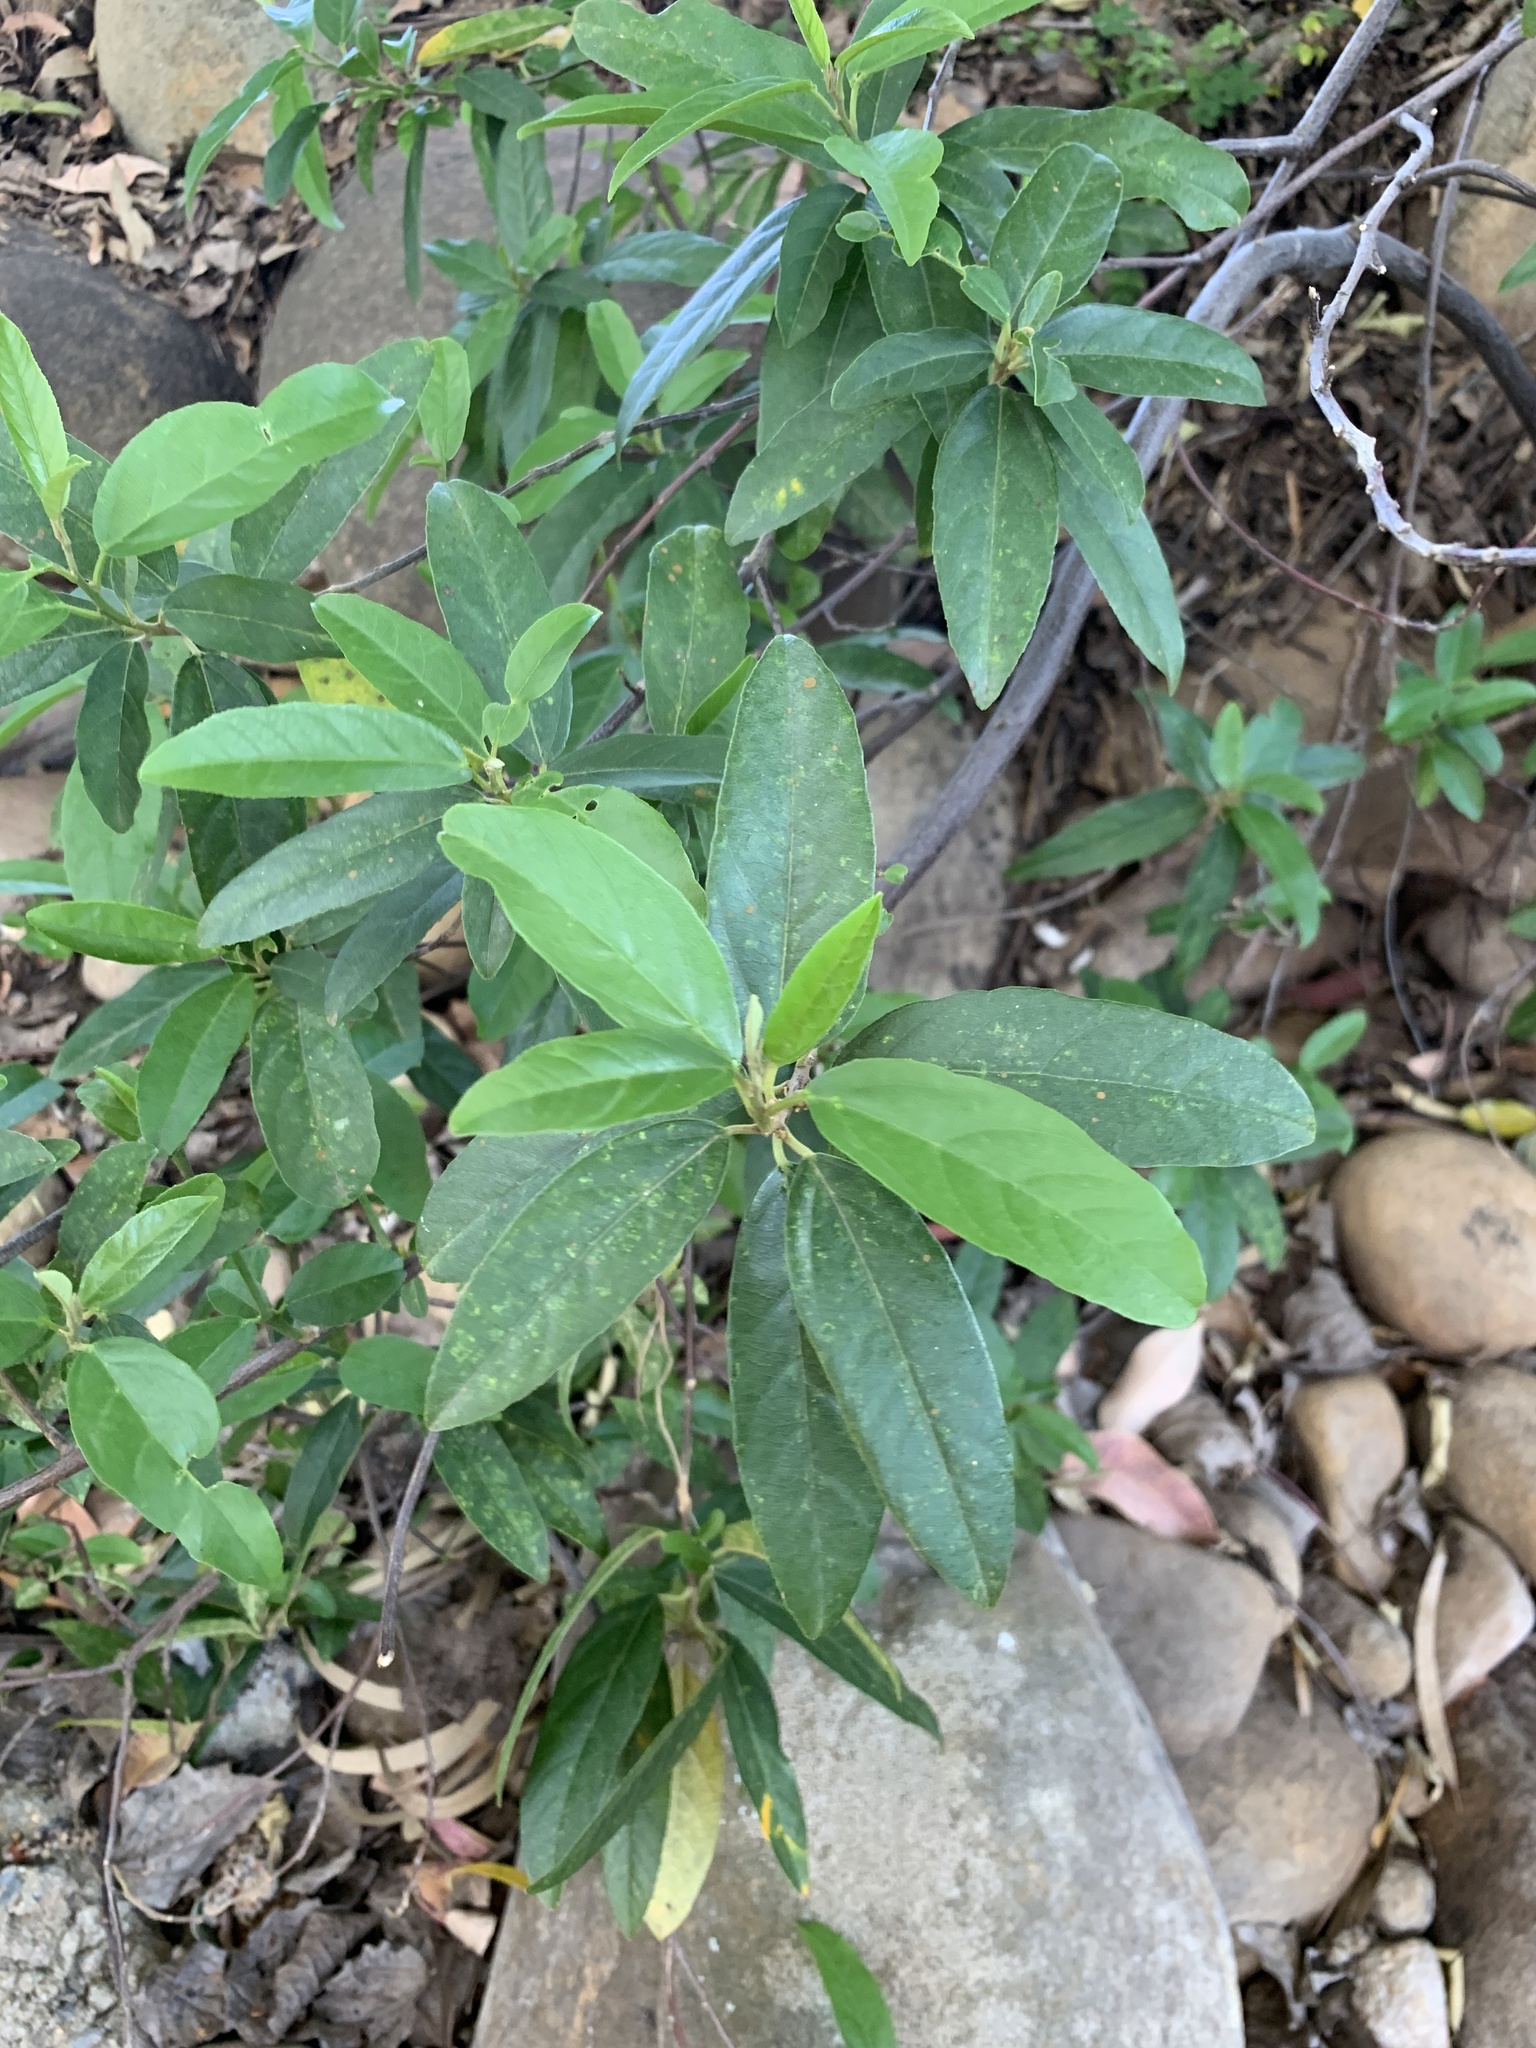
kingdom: Plantae
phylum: Tracheophyta
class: Magnoliopsida
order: Malpighiales
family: Achariaceae
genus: Kiggelaria
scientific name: Kiggelaria africana
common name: Wild peach
